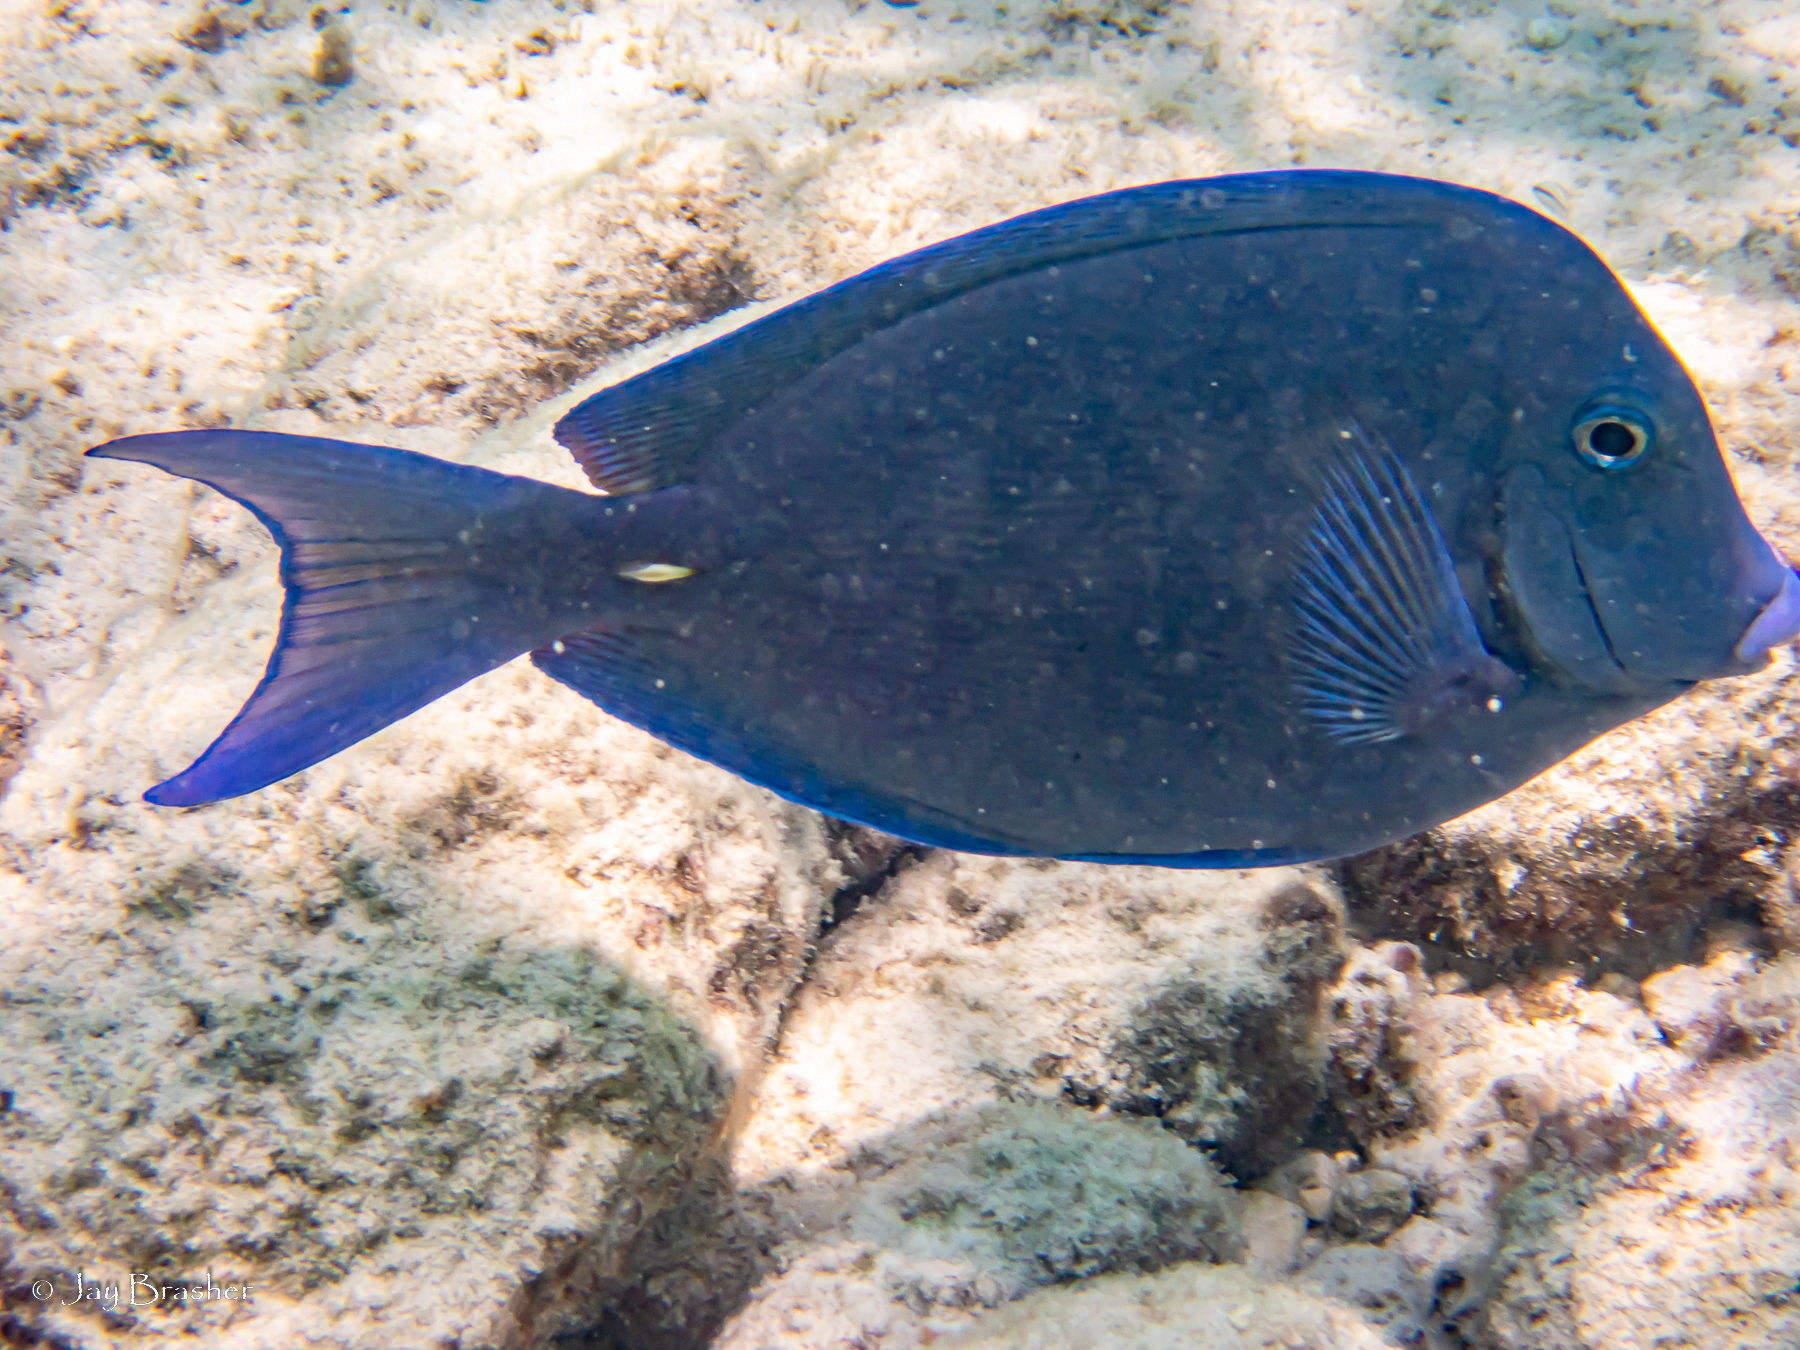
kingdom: Animalia
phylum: Chordata
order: Perciformes
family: Acanthuridae
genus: Acanthurus
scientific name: Acanthurus coeruleus
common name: Blue tang
